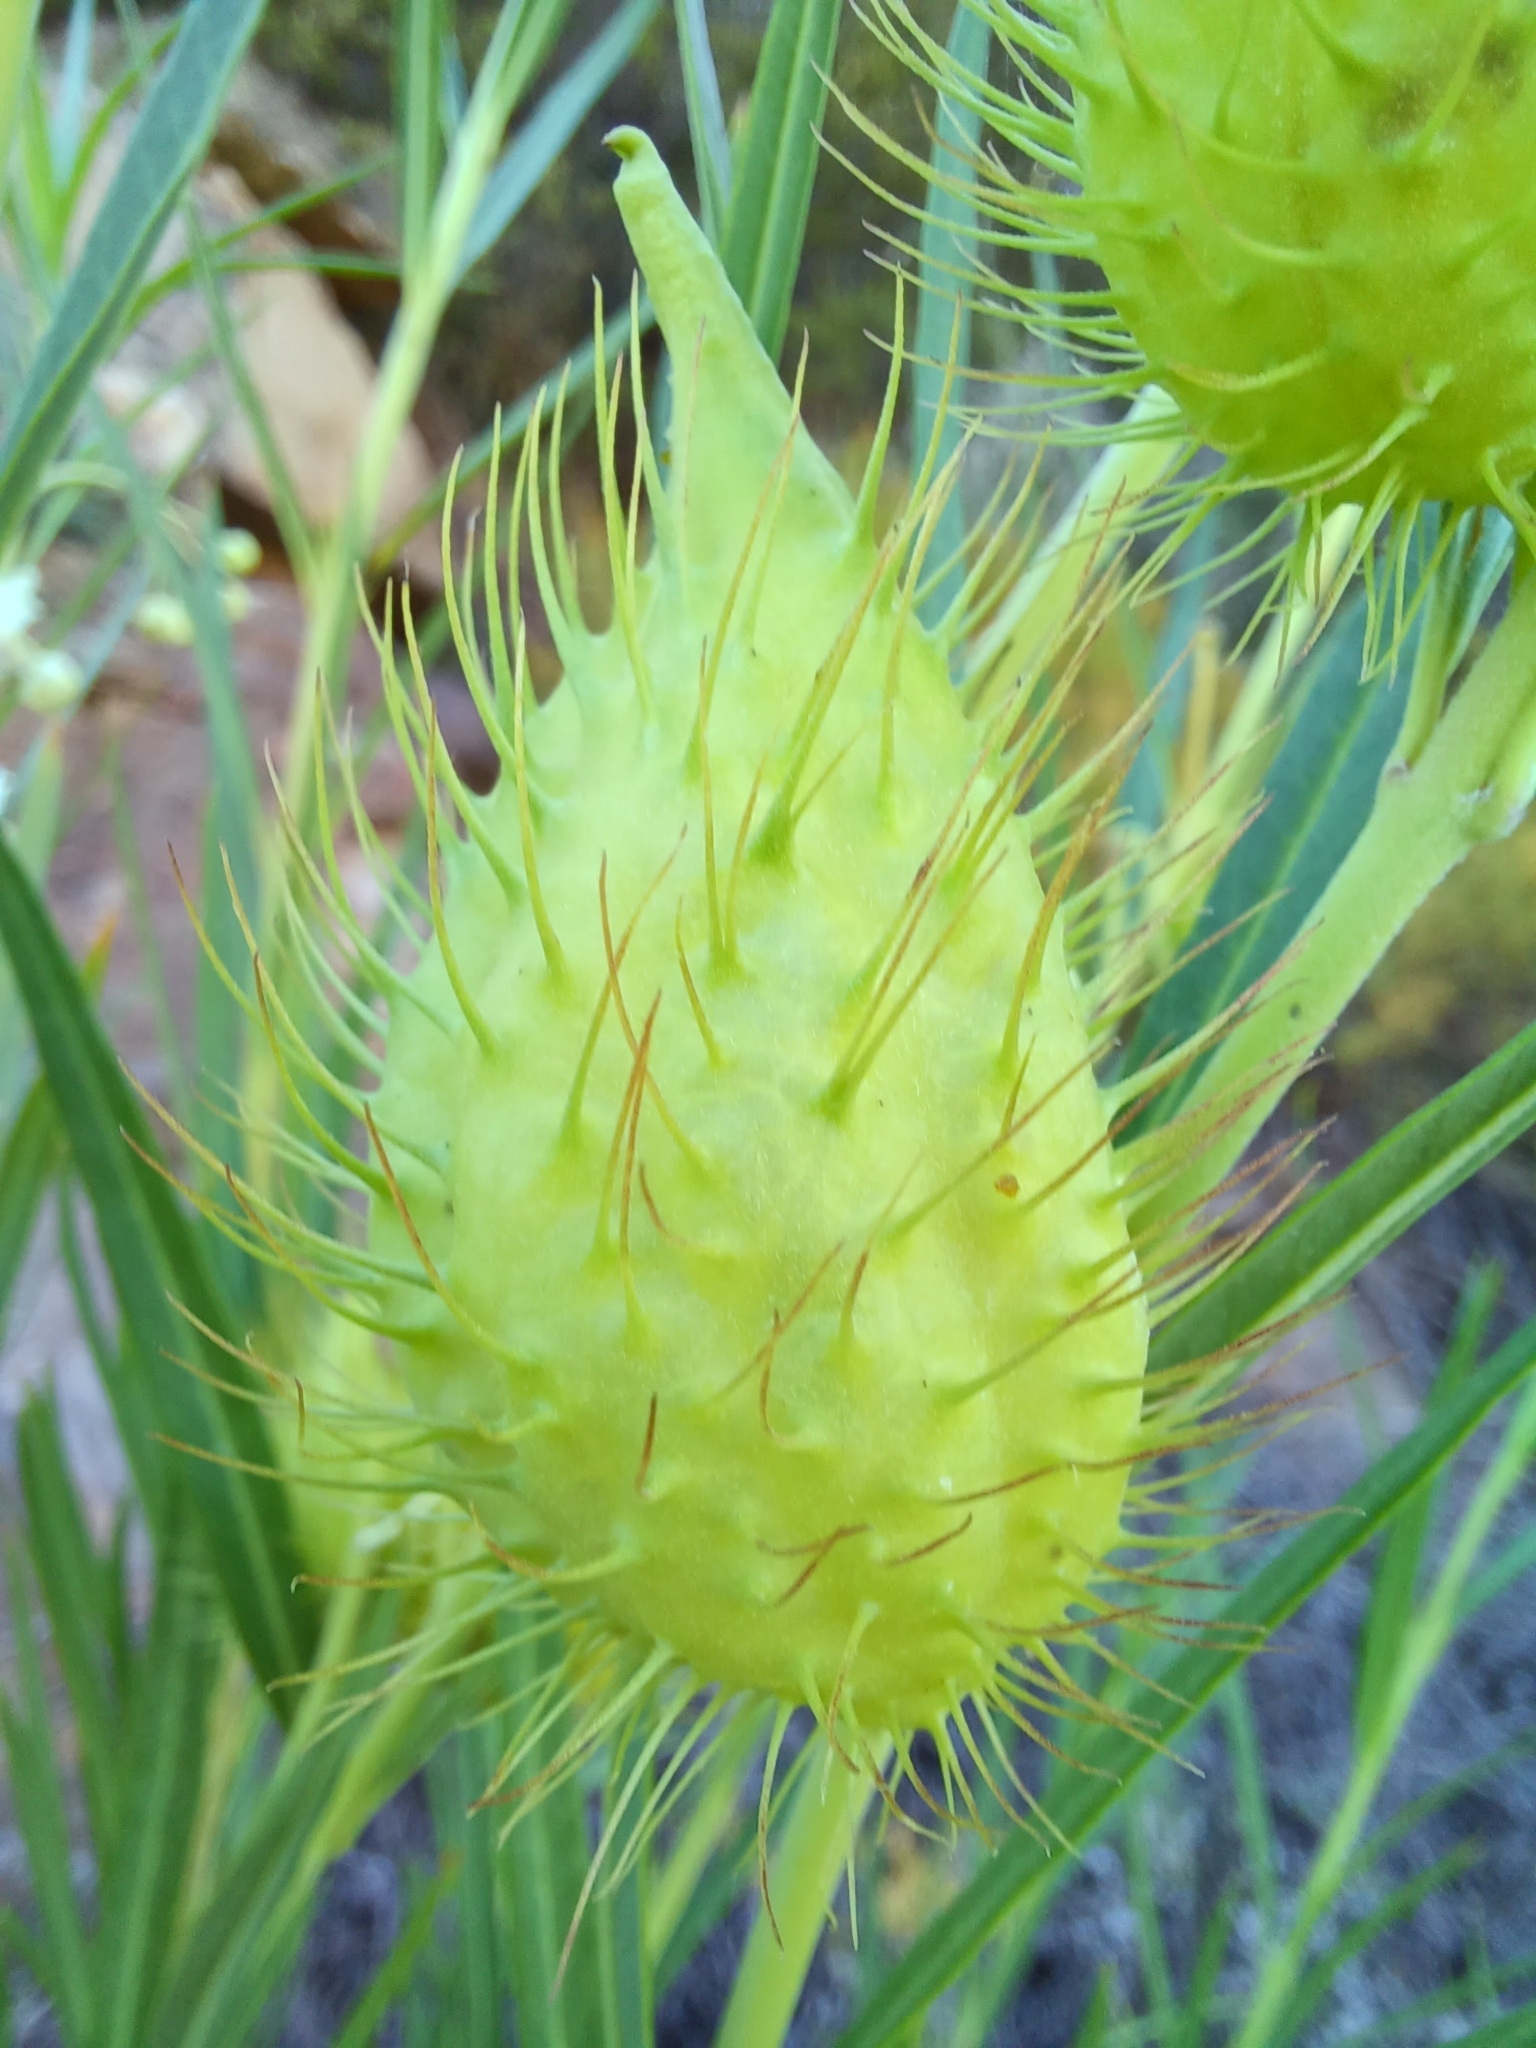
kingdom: Plantae
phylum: Tracheophyta
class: Magnoliopsida
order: Gentianales
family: Apocynaceae
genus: Gomphocarpus
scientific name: Gomphocarpus fruticosus
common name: Milkweed
